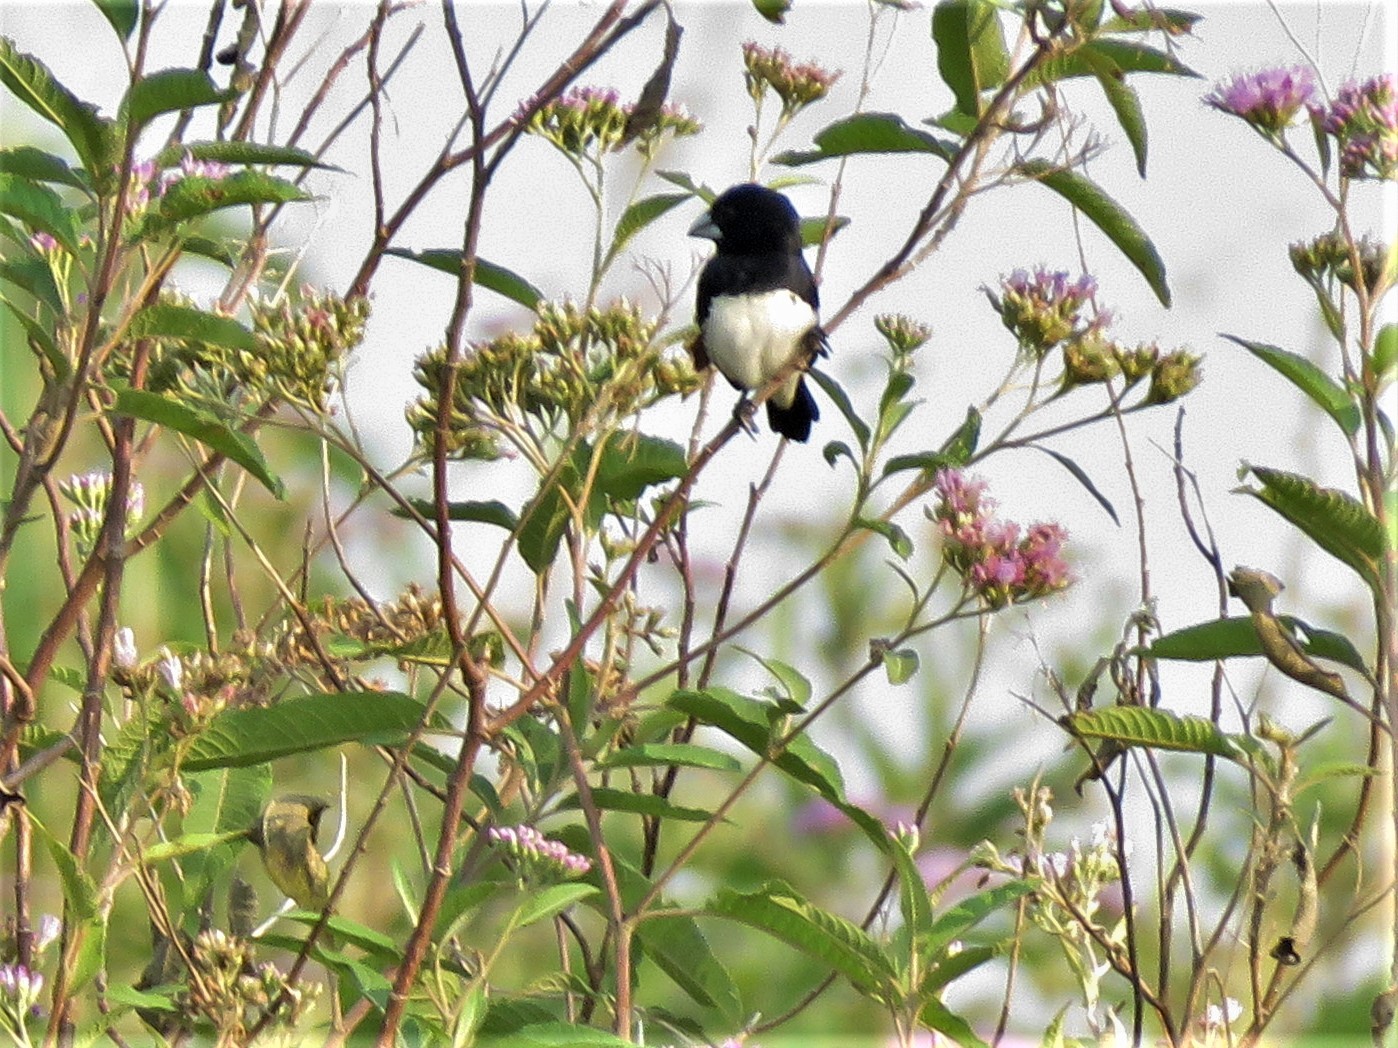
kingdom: Animalia
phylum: Chordata
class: Aves
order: Passeriformes
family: Estrildidae
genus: Lonchura
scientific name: Lonchura bicolor
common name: Black-and-white mannikin
